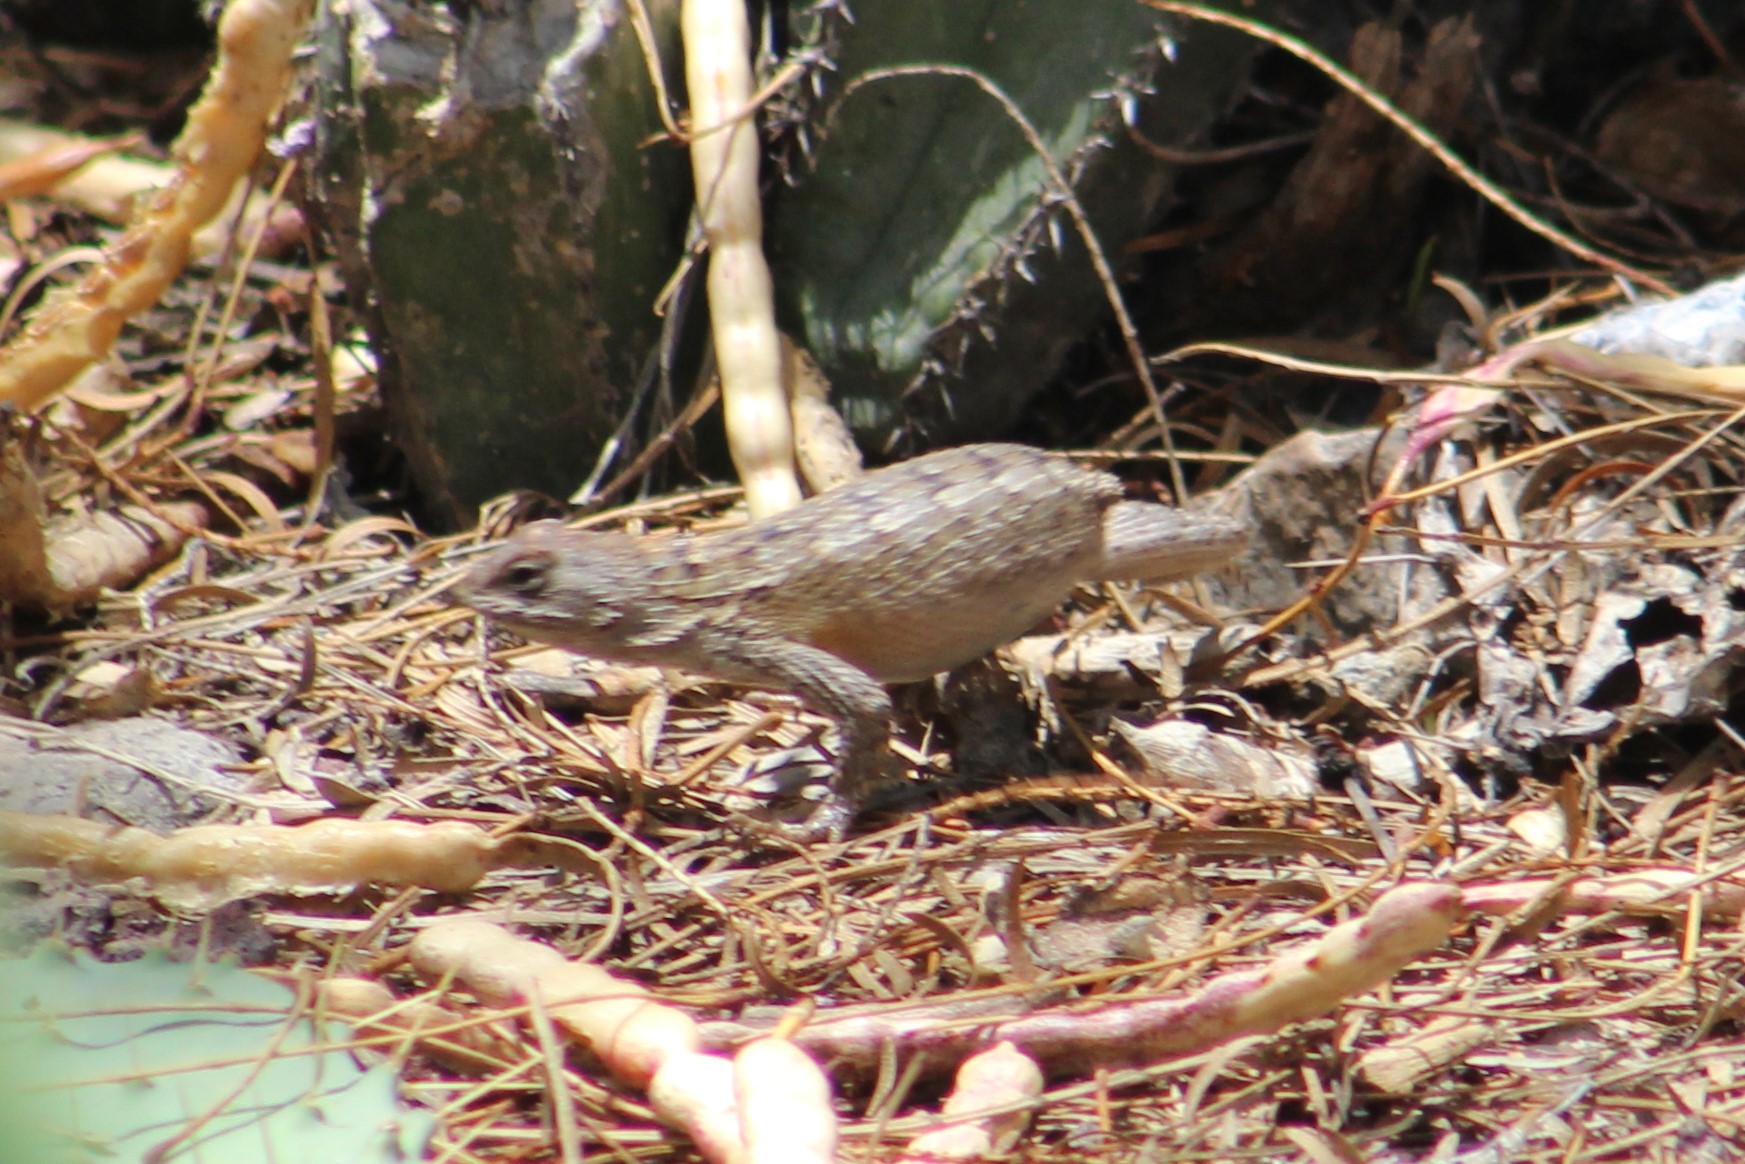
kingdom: Animalia
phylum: Chordata
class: Squamata
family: Phrynosomatidae
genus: Sceloporus
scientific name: Sceloporus olivaceus
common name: Texas spiny lizard
